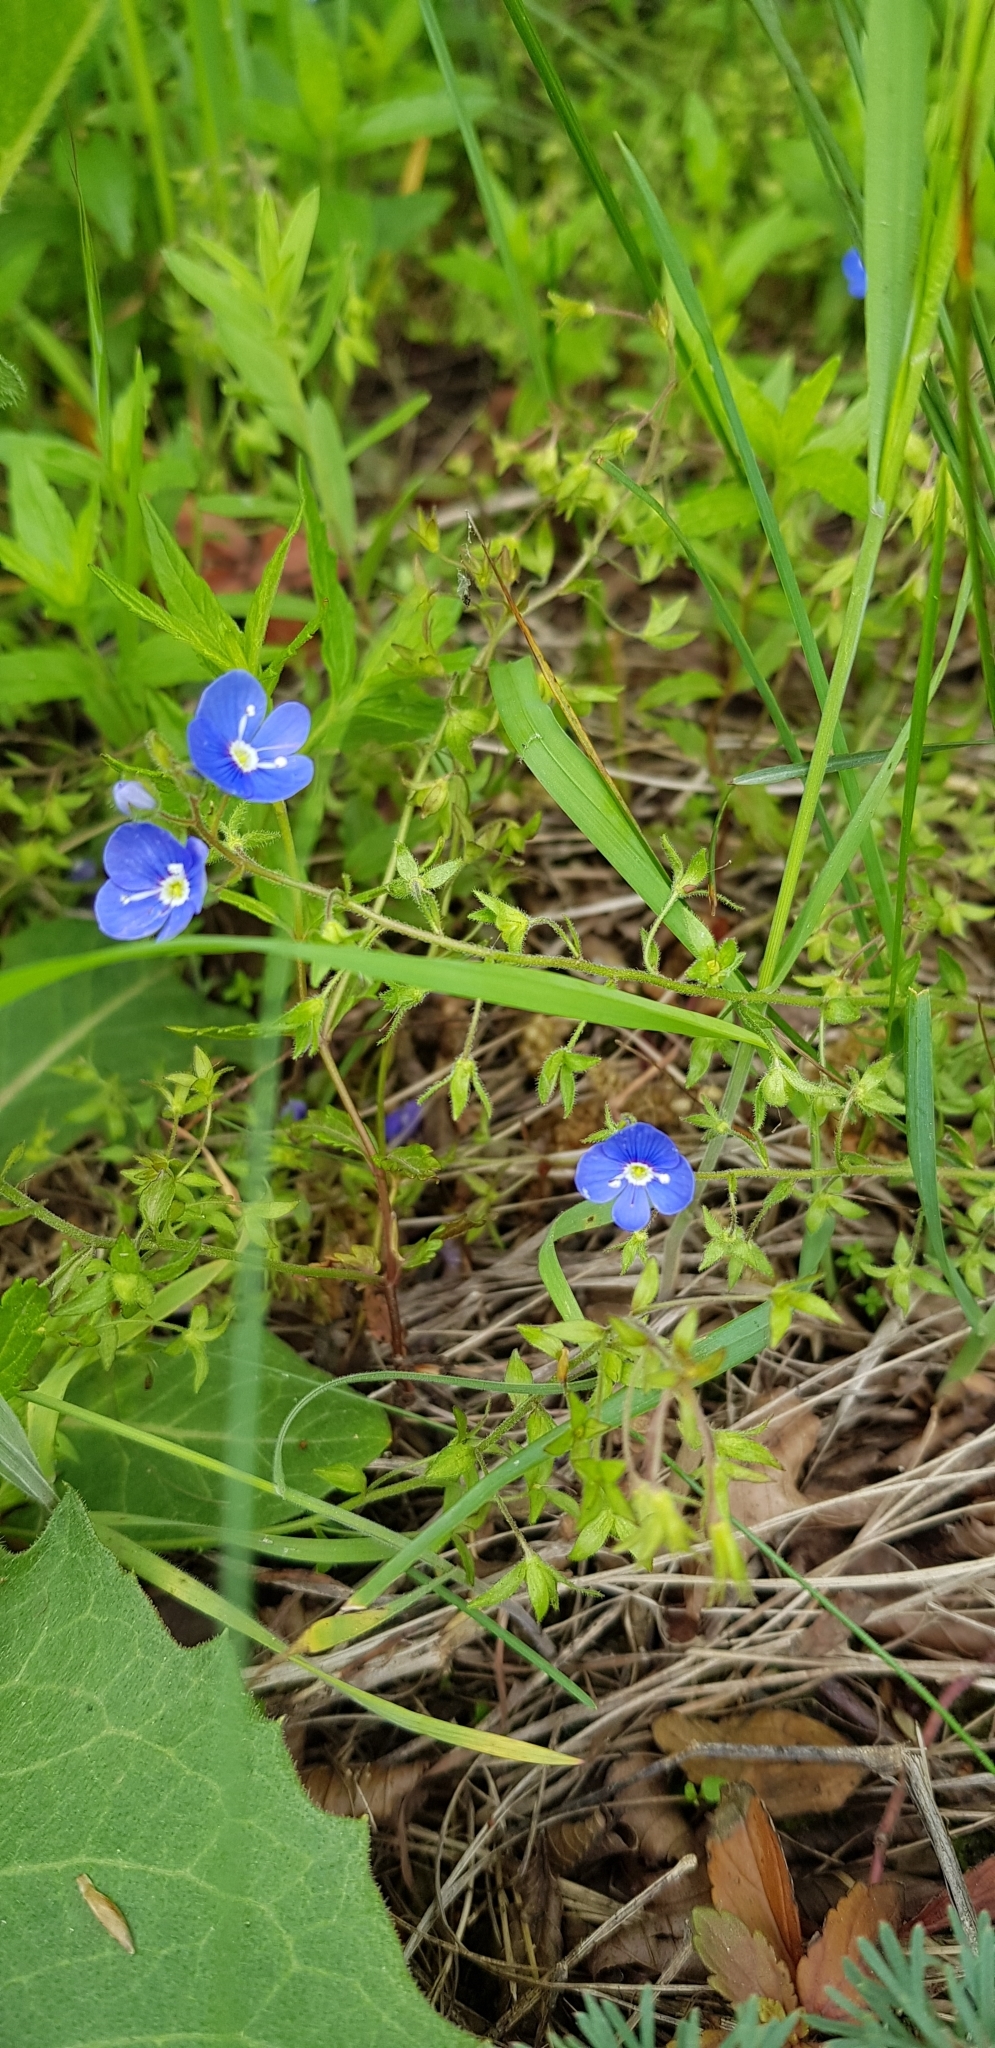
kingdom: Plantae
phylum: Tracheophyta
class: Magnoliopsida
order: Lamiales
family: Plantaginaceae
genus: Veronica
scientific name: Veronica
